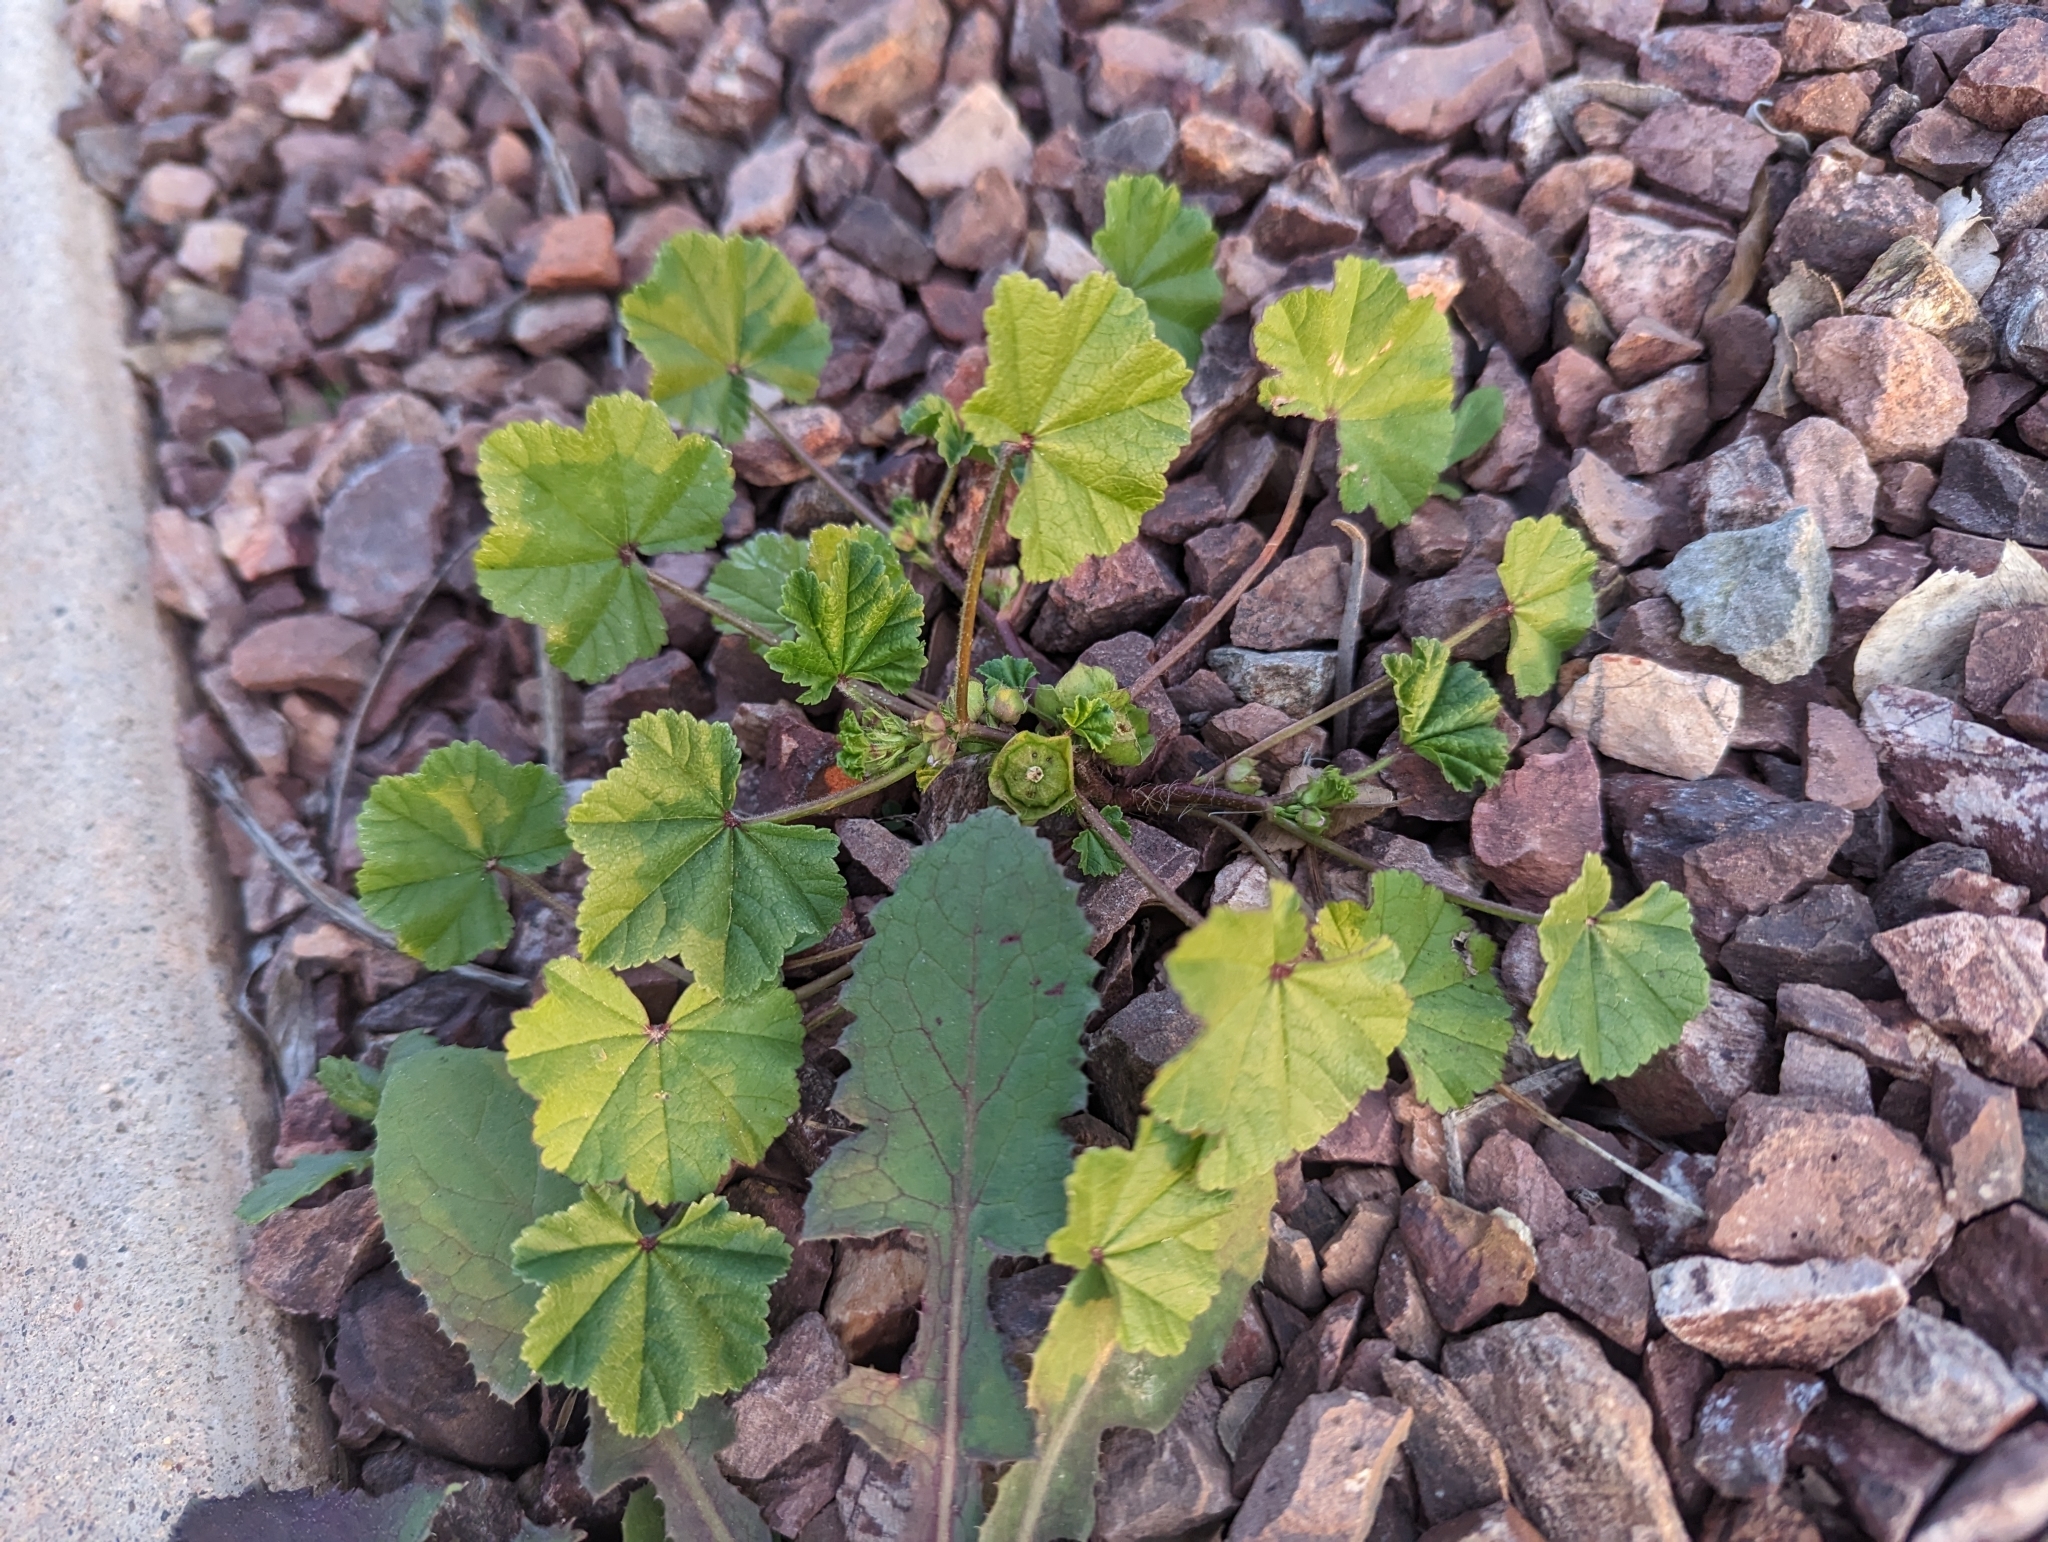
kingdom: Plantae
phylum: Tracheophyta
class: Magnoliopsida
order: Malvales
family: Malvaceae
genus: Malva
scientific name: Malva parviflora
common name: Least mallow
